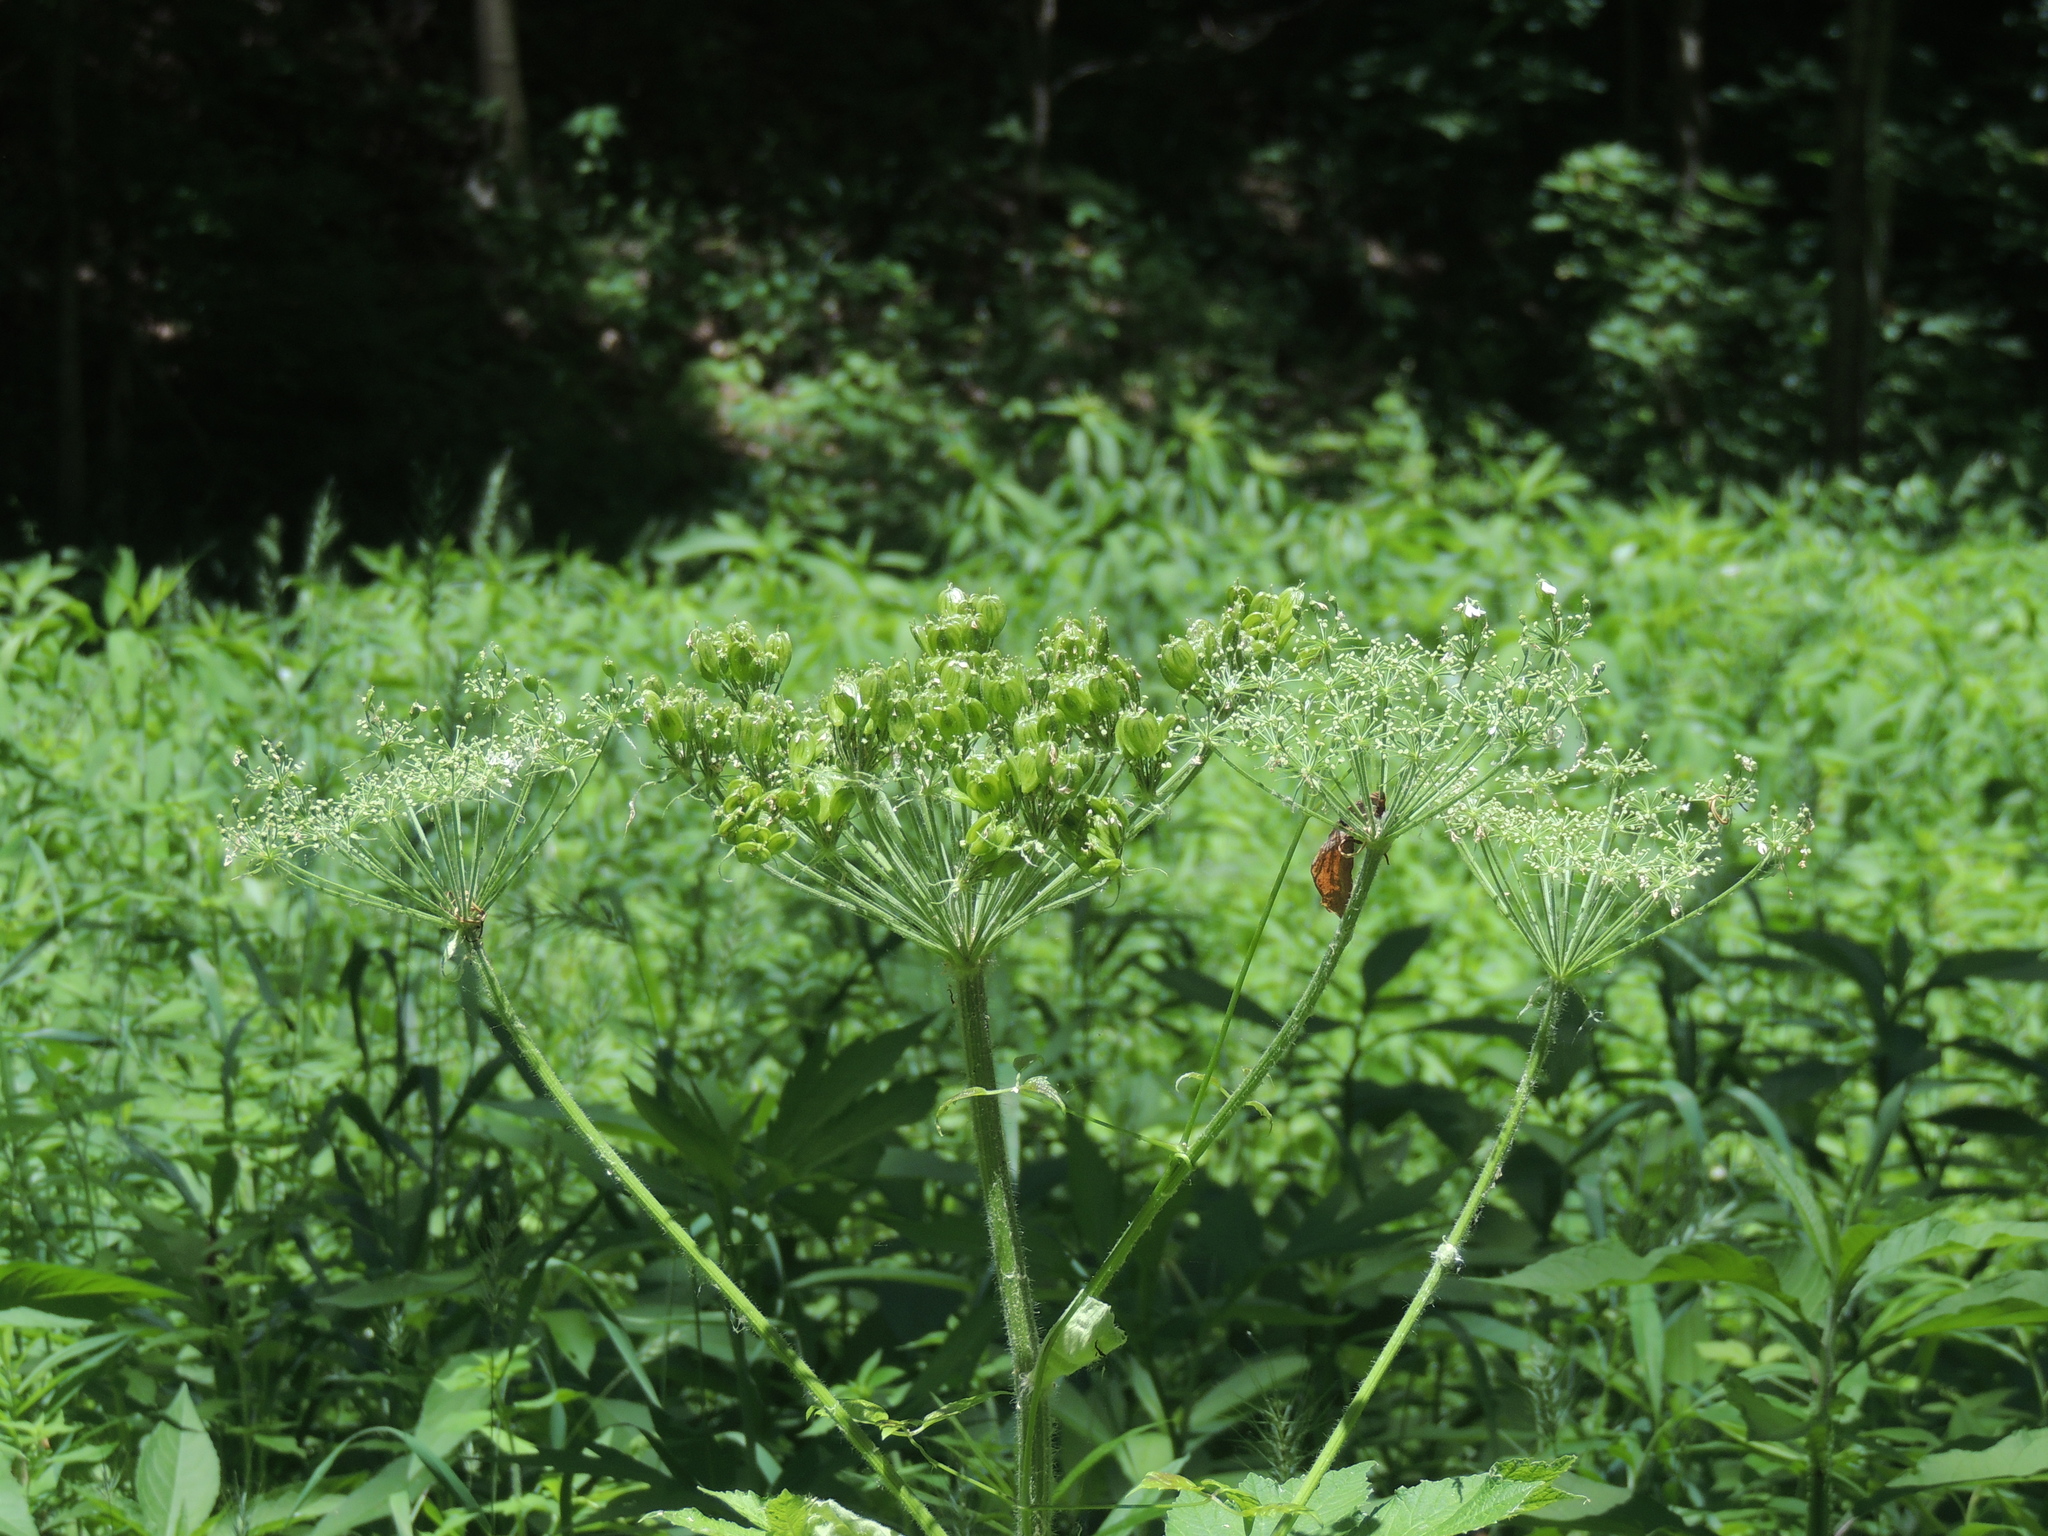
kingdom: Plantae
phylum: Tracheophyta
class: Magnoliopsida
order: Apiales
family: Apiaceae
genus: Heracleum
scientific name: Heracleum maximum
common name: American cow parsnip
